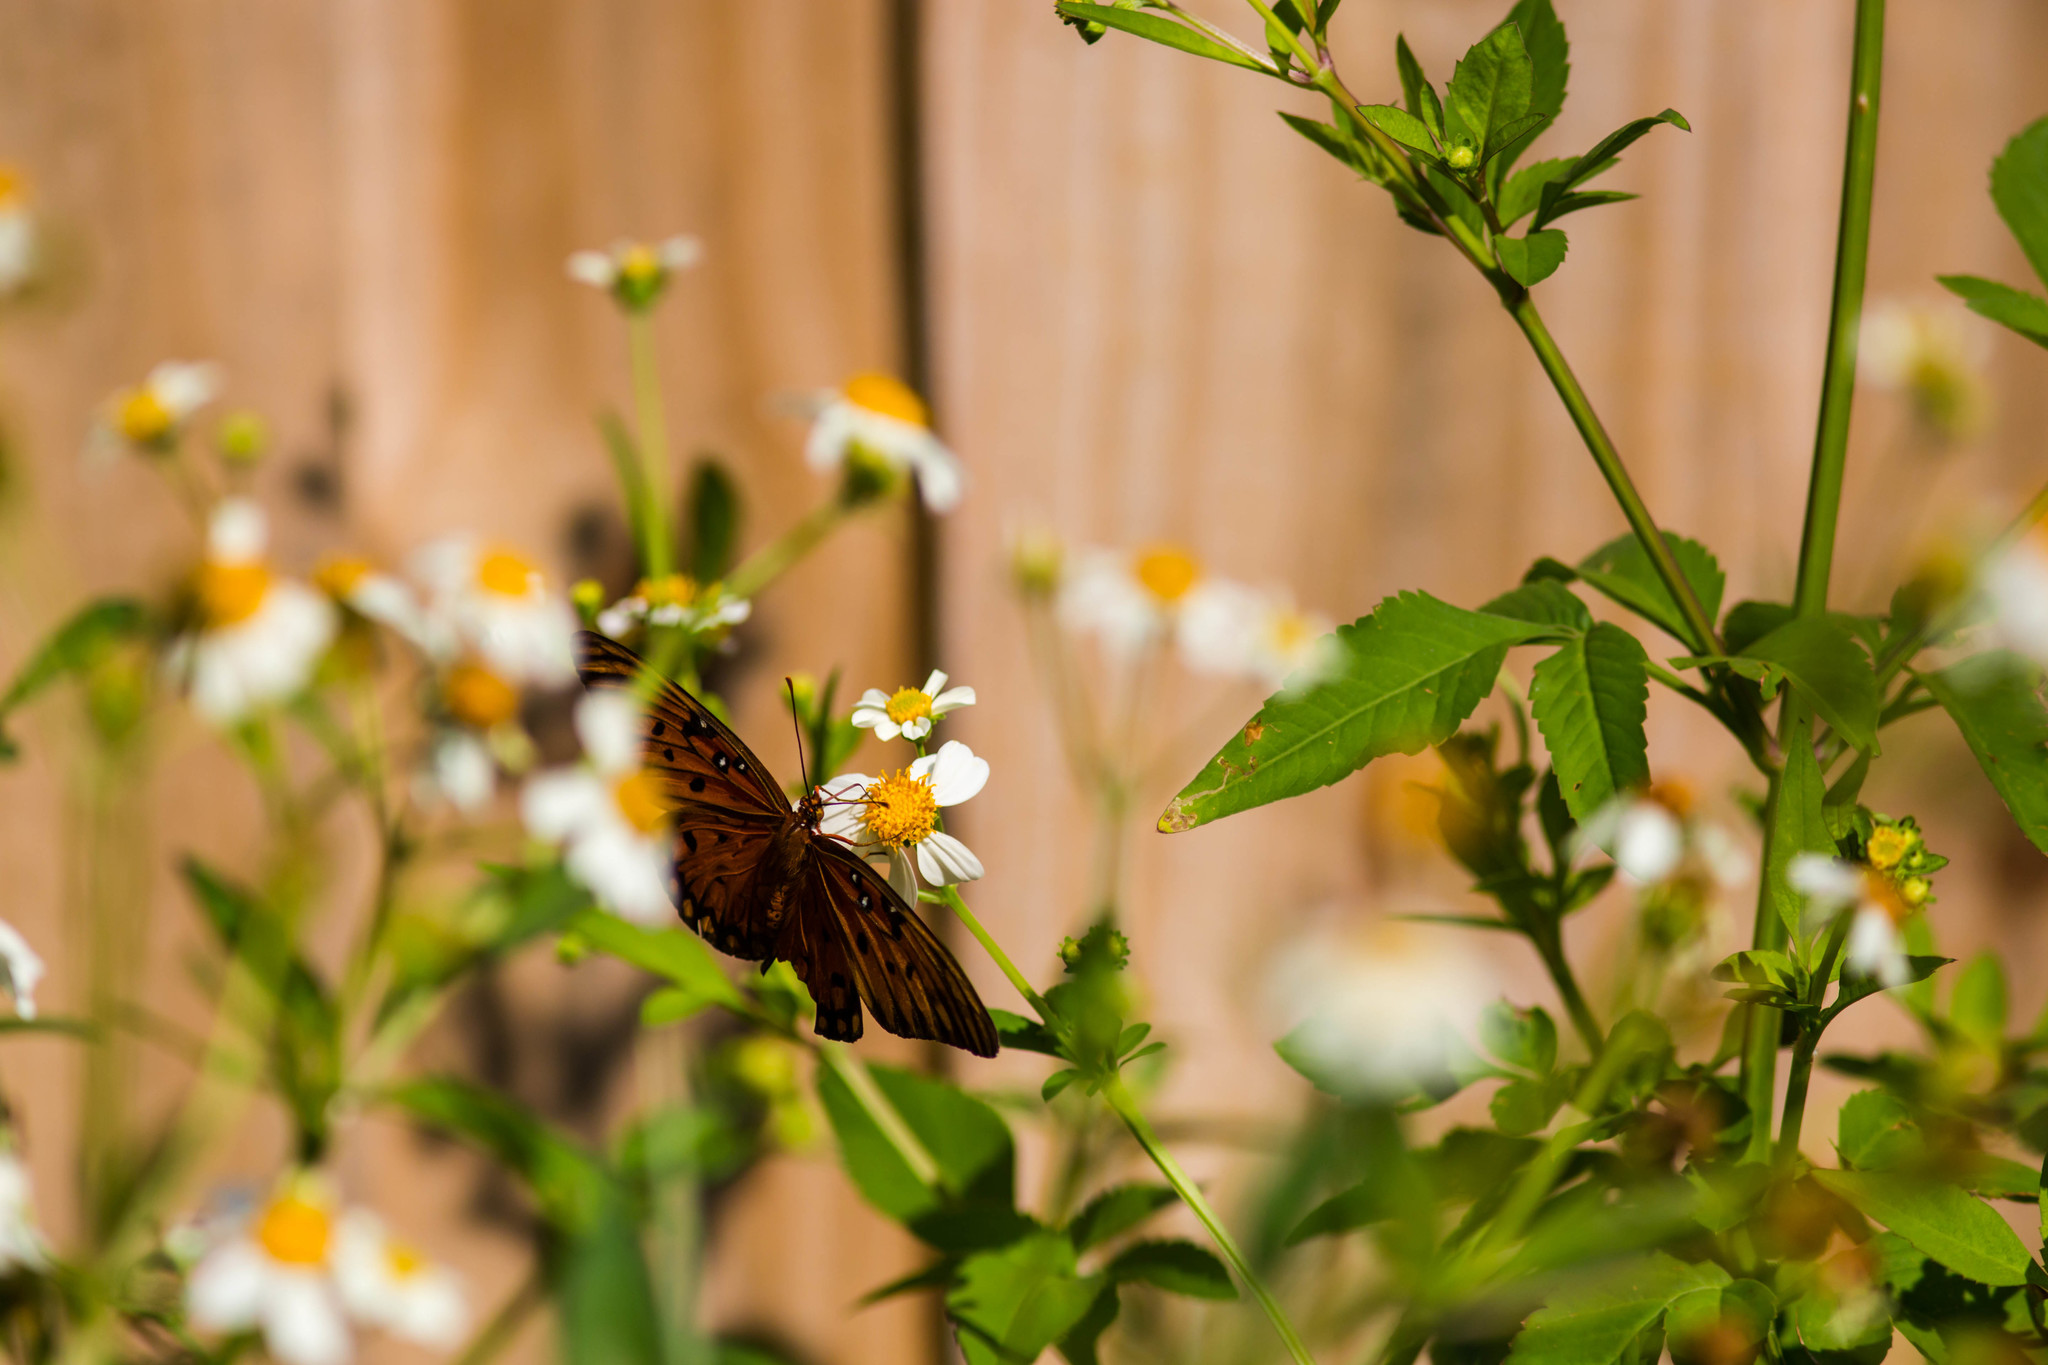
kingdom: Animalia
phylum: Arthropoda
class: Insecta
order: Lepidoptera
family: Nymphalidae
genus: Dione
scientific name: Dione vanillae
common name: Gulf fritillary
